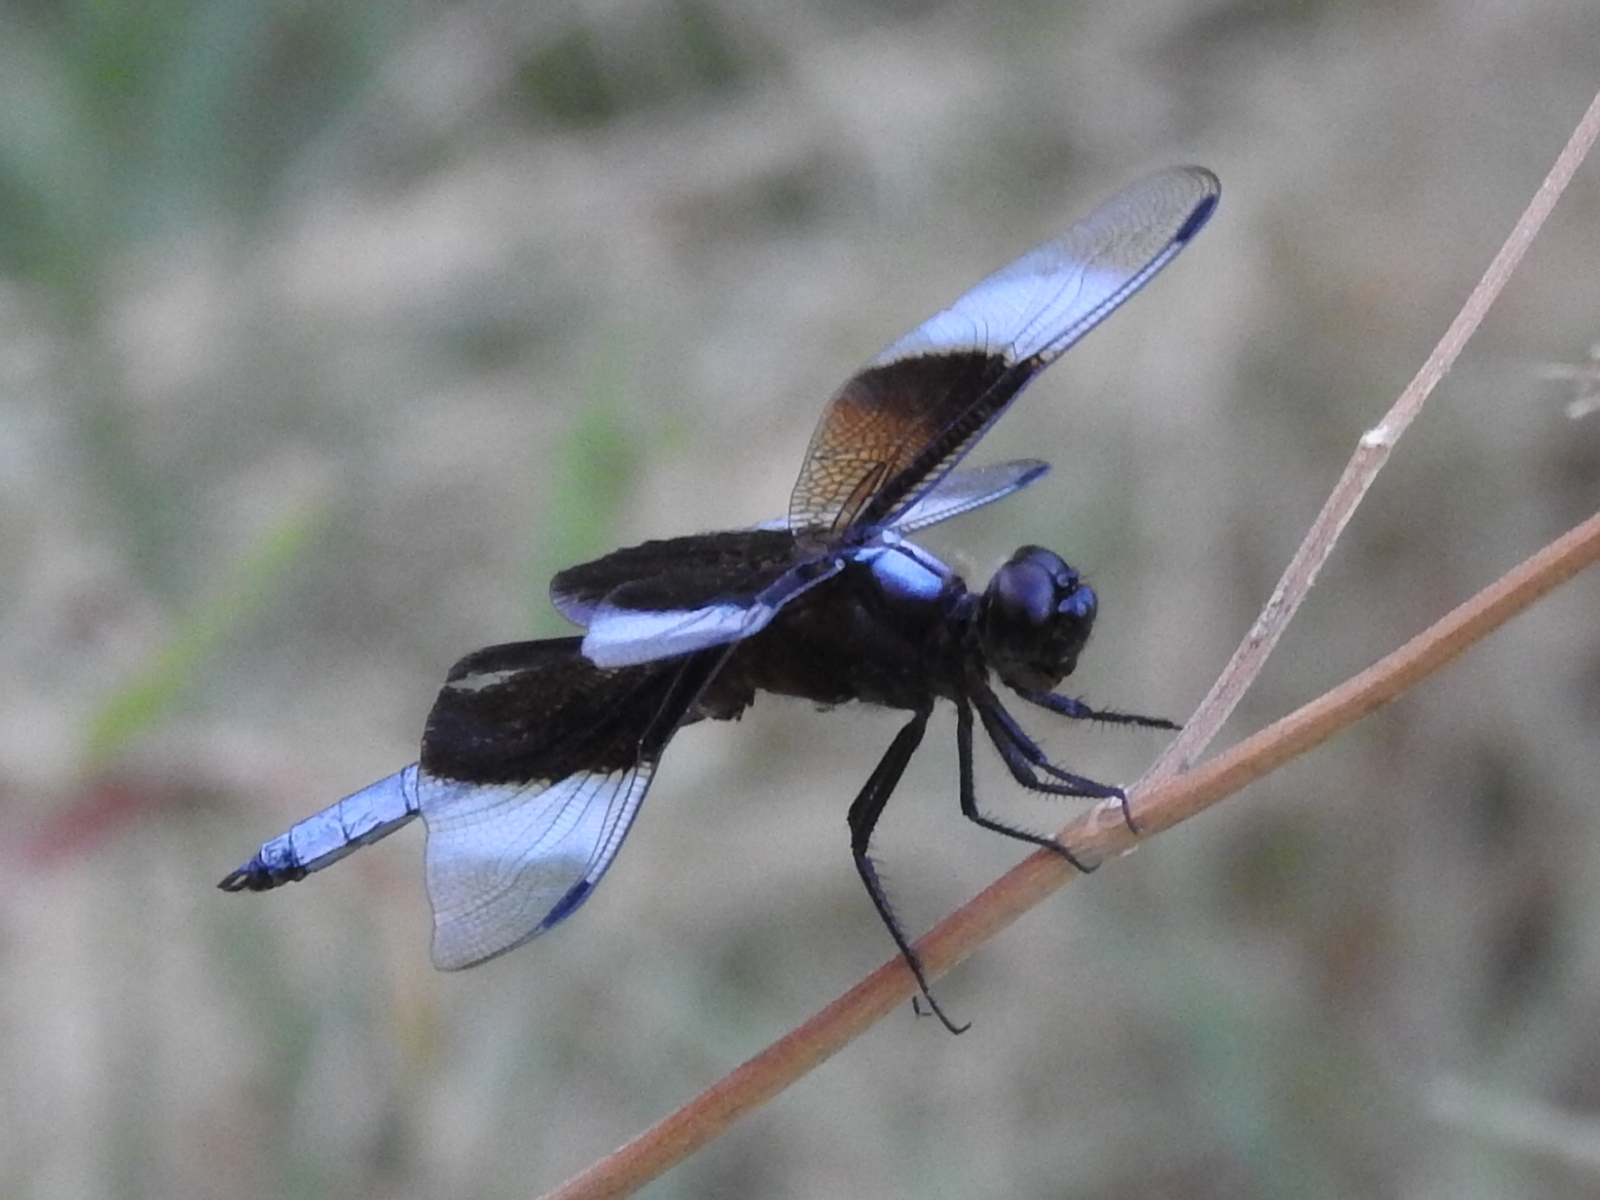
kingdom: Animalia
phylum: Arthropoda
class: Insecta
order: Odonata
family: Libellulidae
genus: Libellula
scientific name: Libellula luctuosa
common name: Widow skimmer
